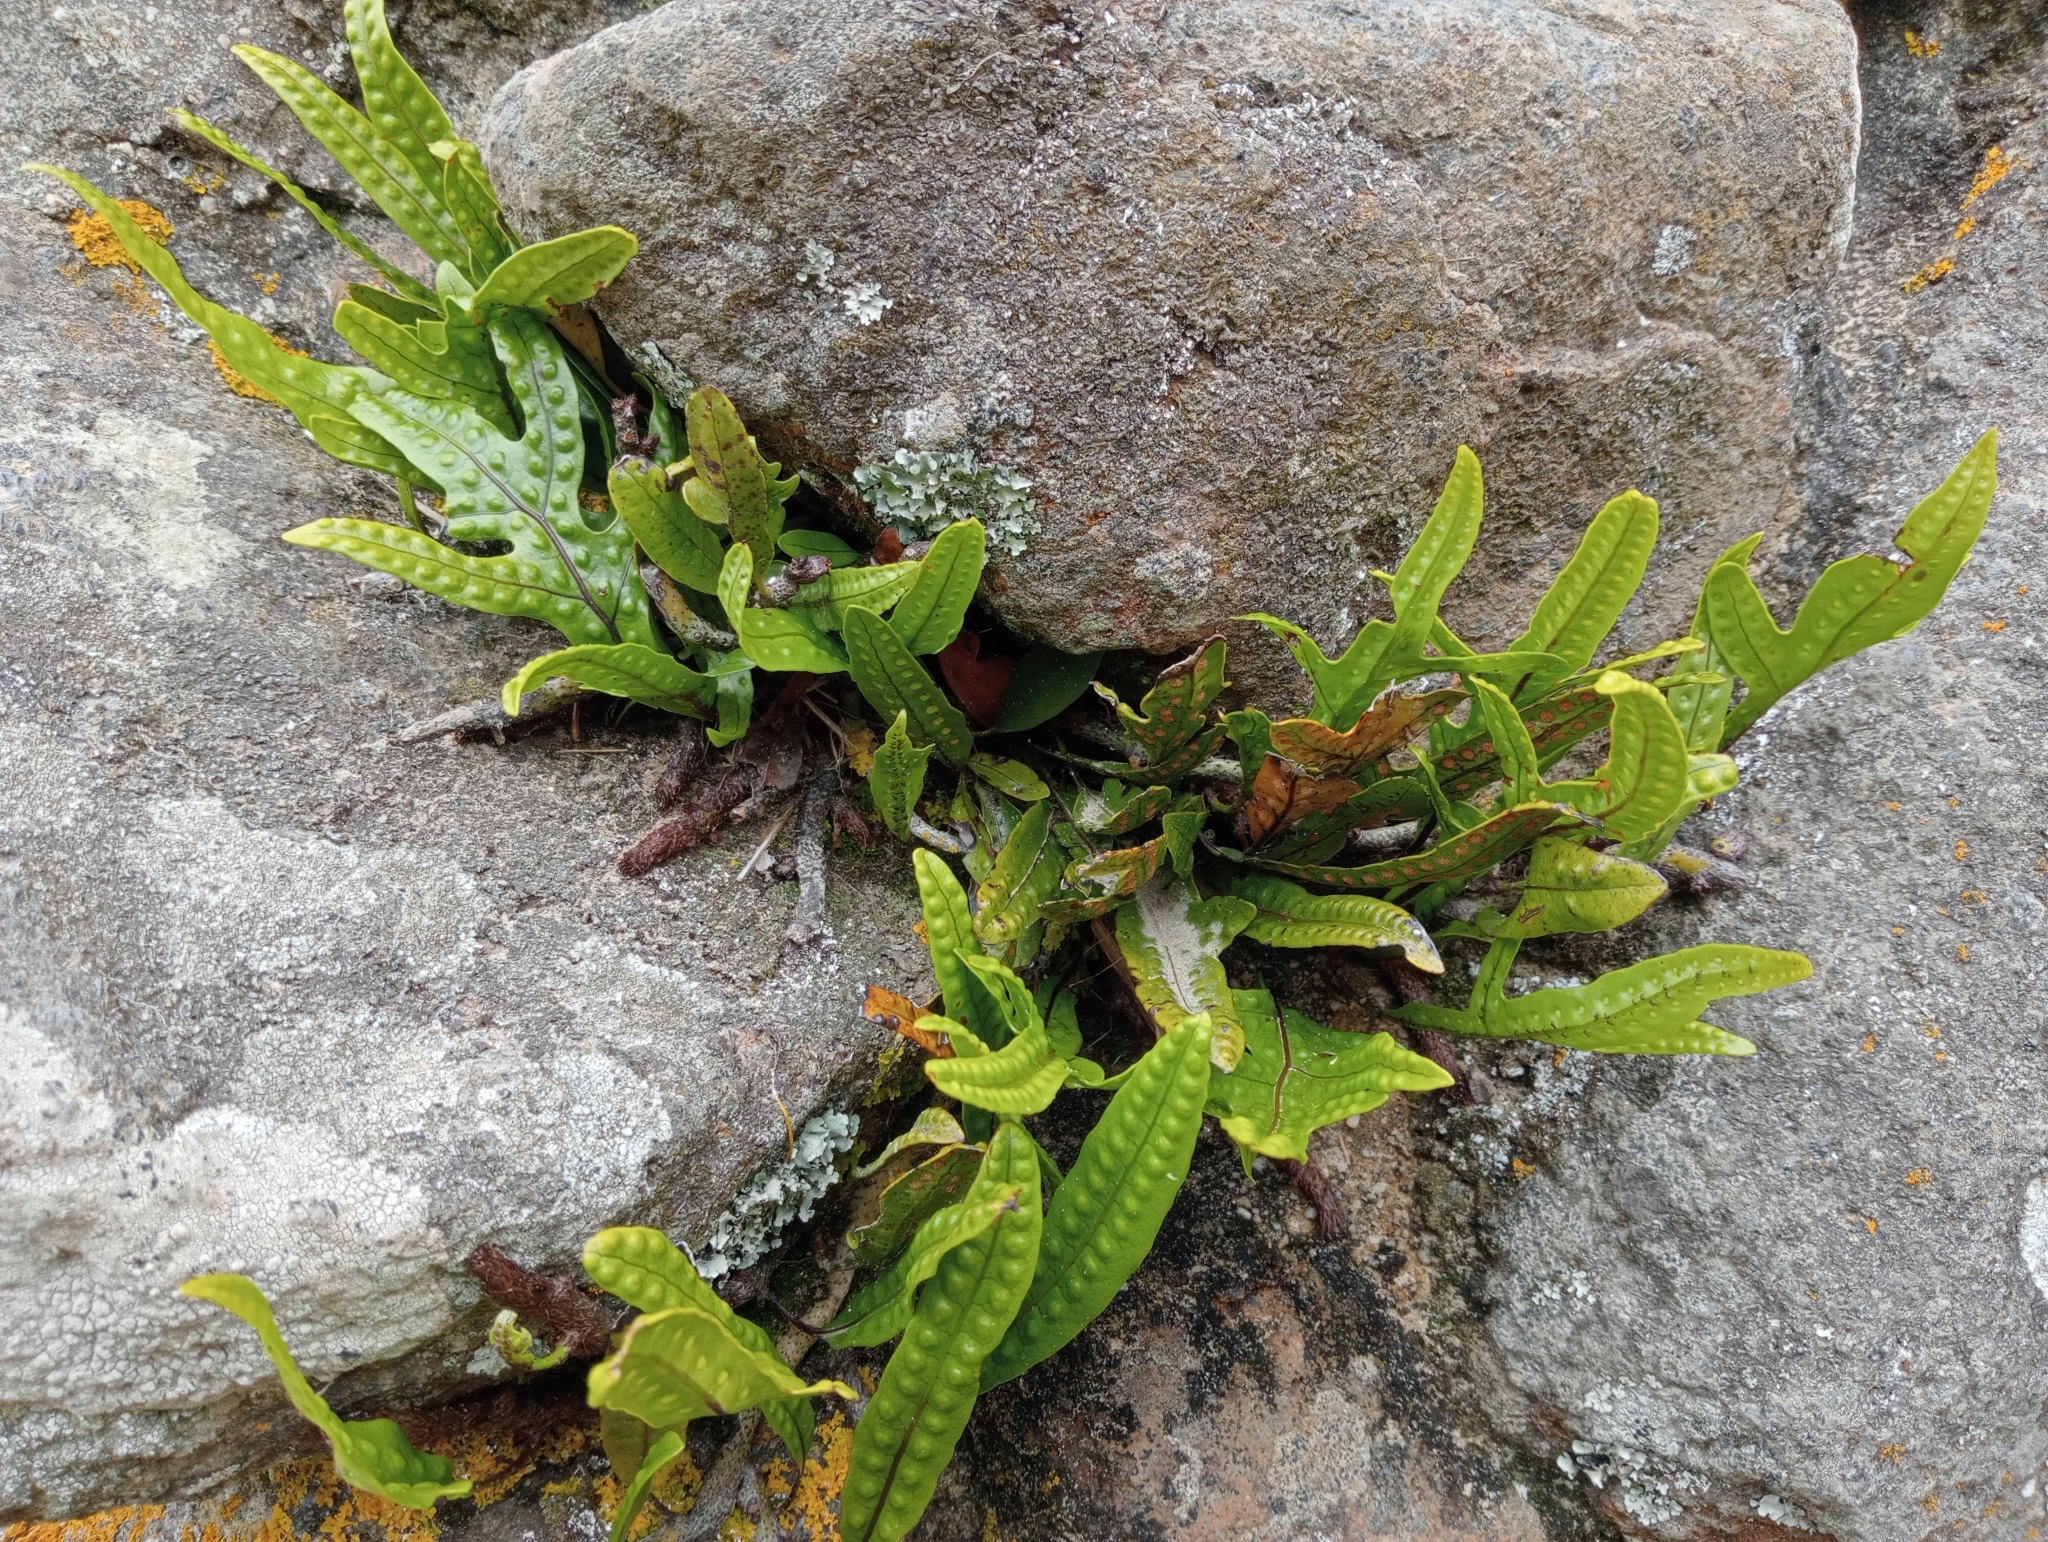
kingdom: Plantae
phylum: Tracheophyta
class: Polypodiopsida
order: Polypodiales
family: Polypodiaceae
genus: Lecanopteris
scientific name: Lecanopteris pustulata
